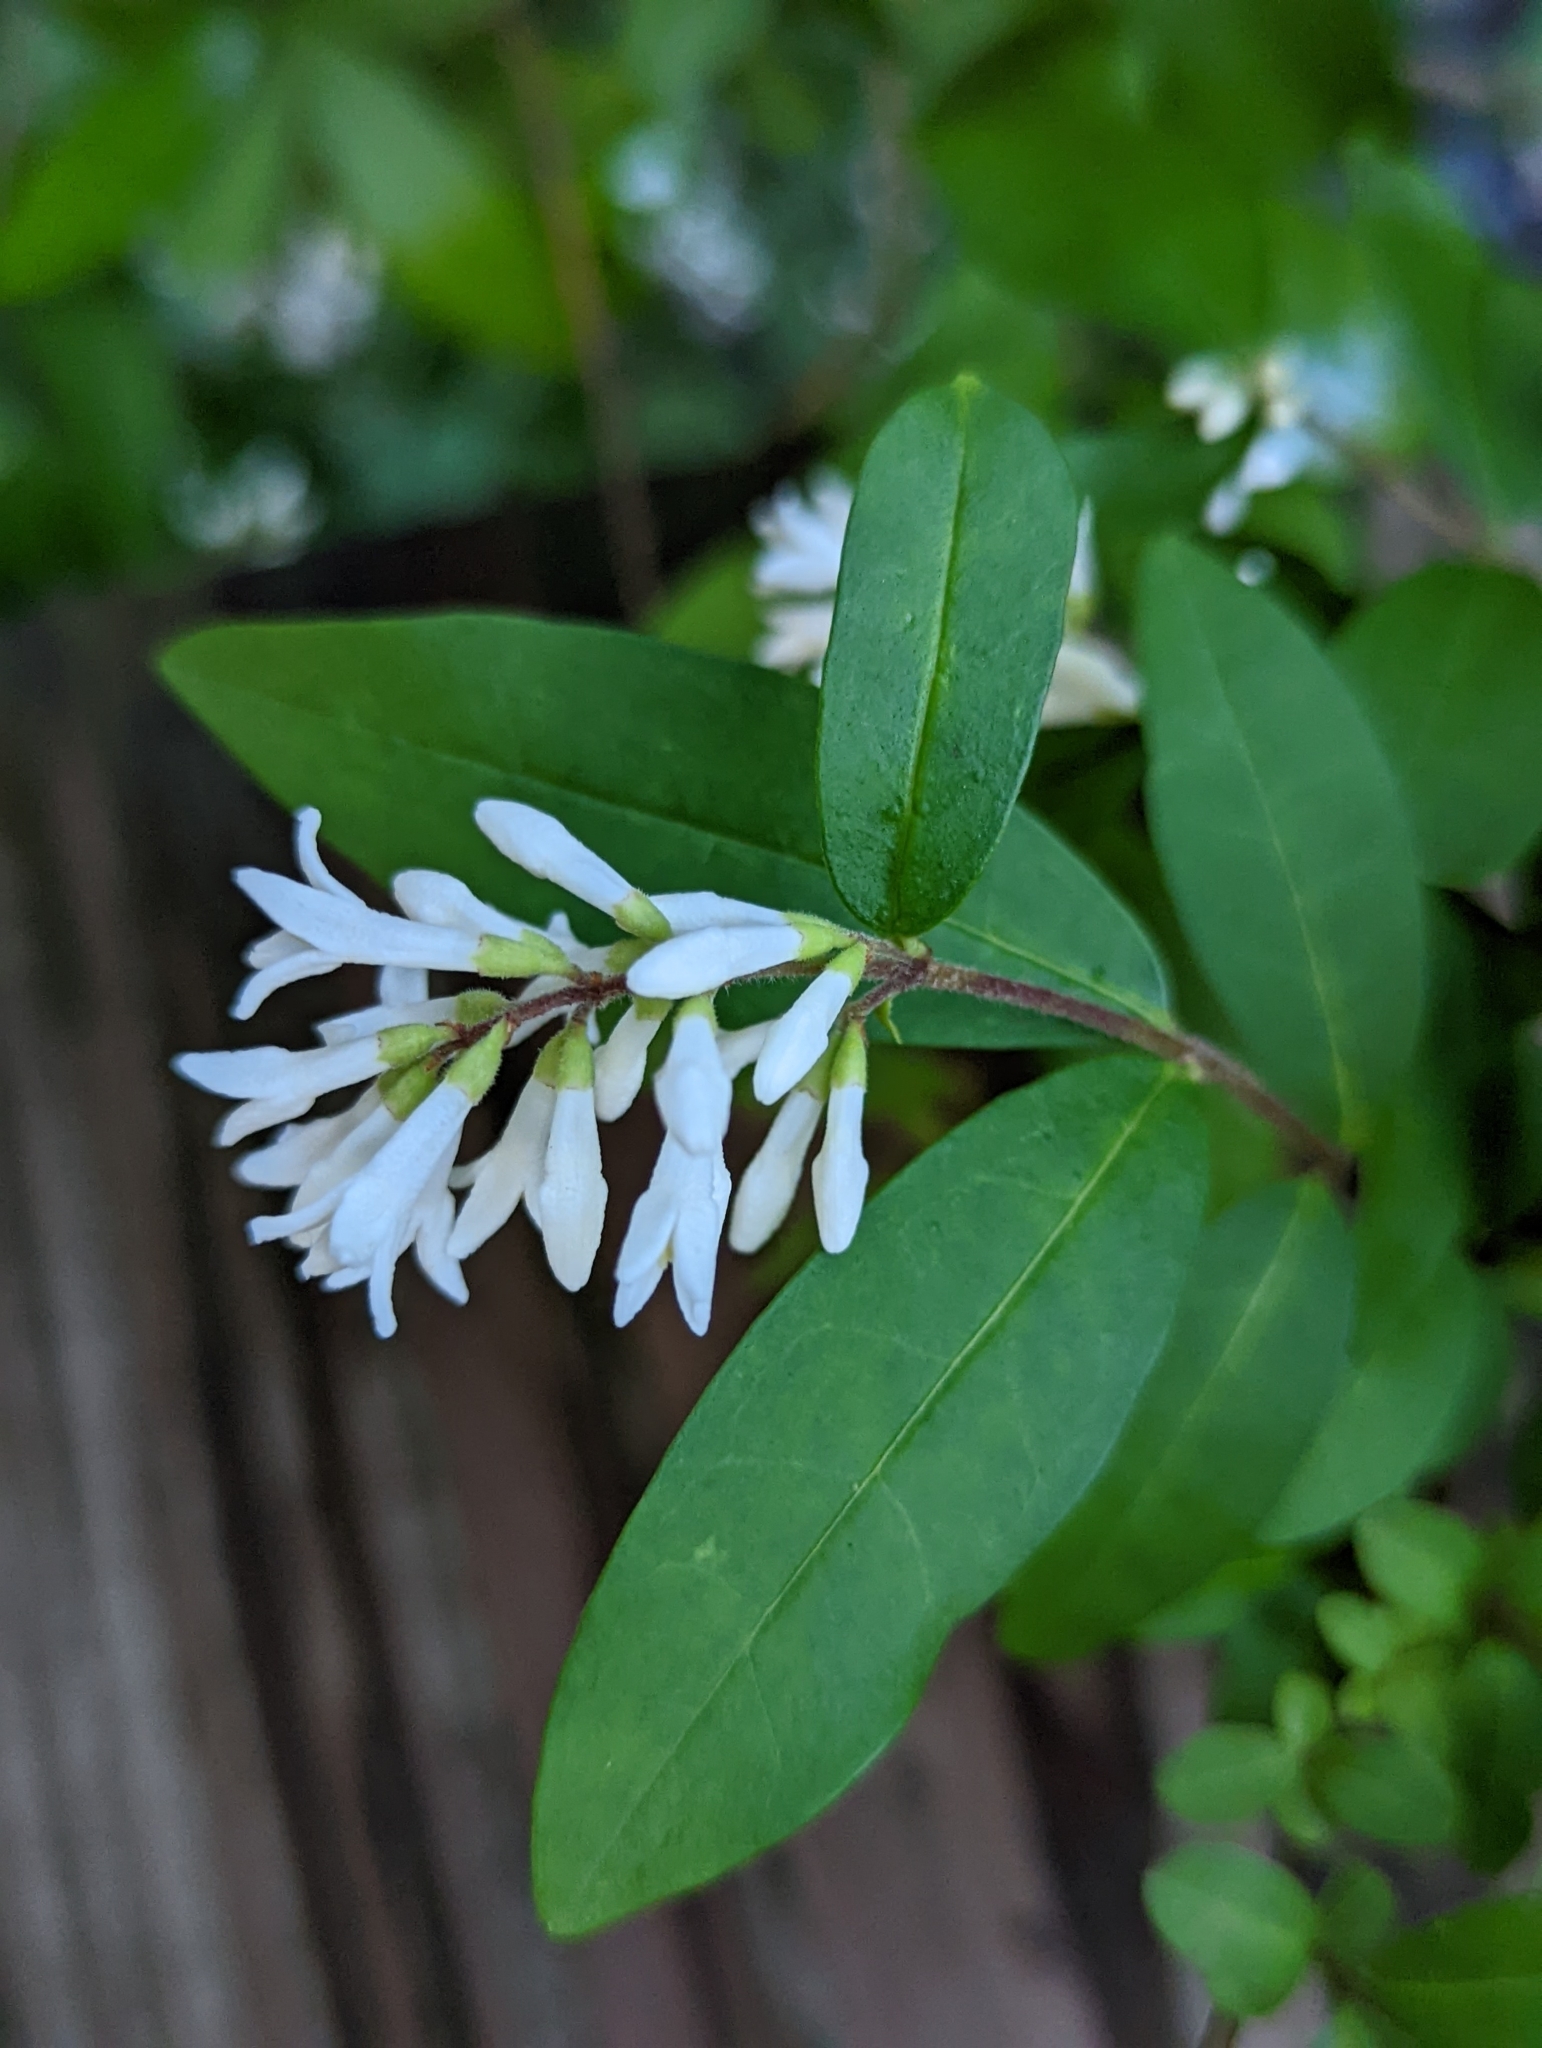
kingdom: Plantae
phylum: Tracheophyta
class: Magnoliopsida
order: Lamiales
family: Oleaceae
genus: Ligustrum
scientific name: Ligustrum obtusifolium
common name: Border privet
